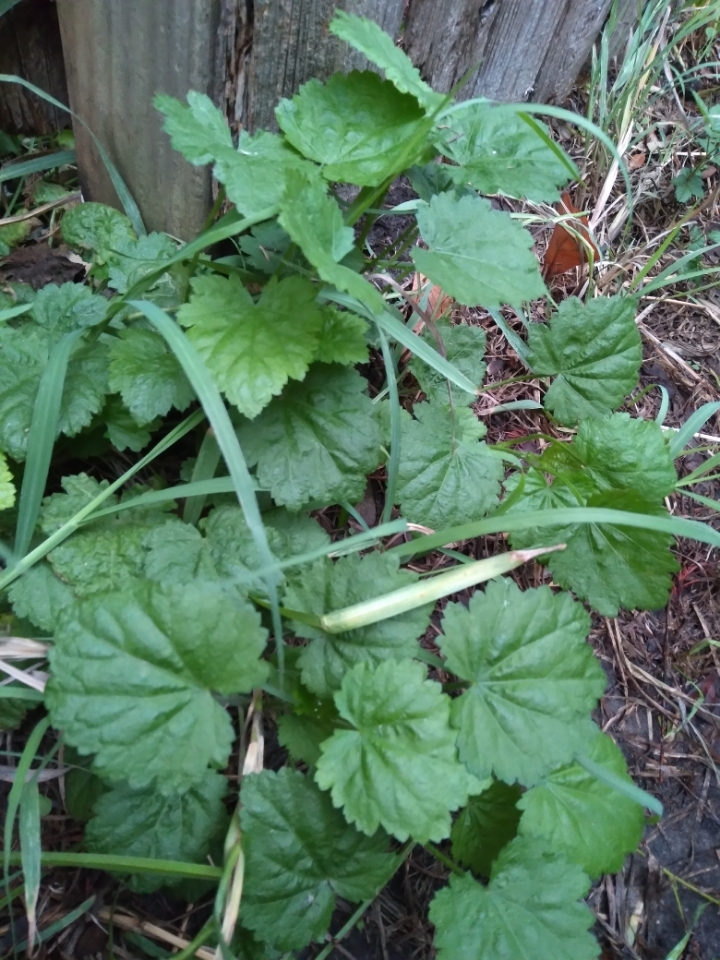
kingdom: Plantae
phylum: Tracheophyta
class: Magnoliopsida
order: Malvales
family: Malvaceae
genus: Modiola
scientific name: Modiola caroliniana
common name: Carolina bristlemallow
